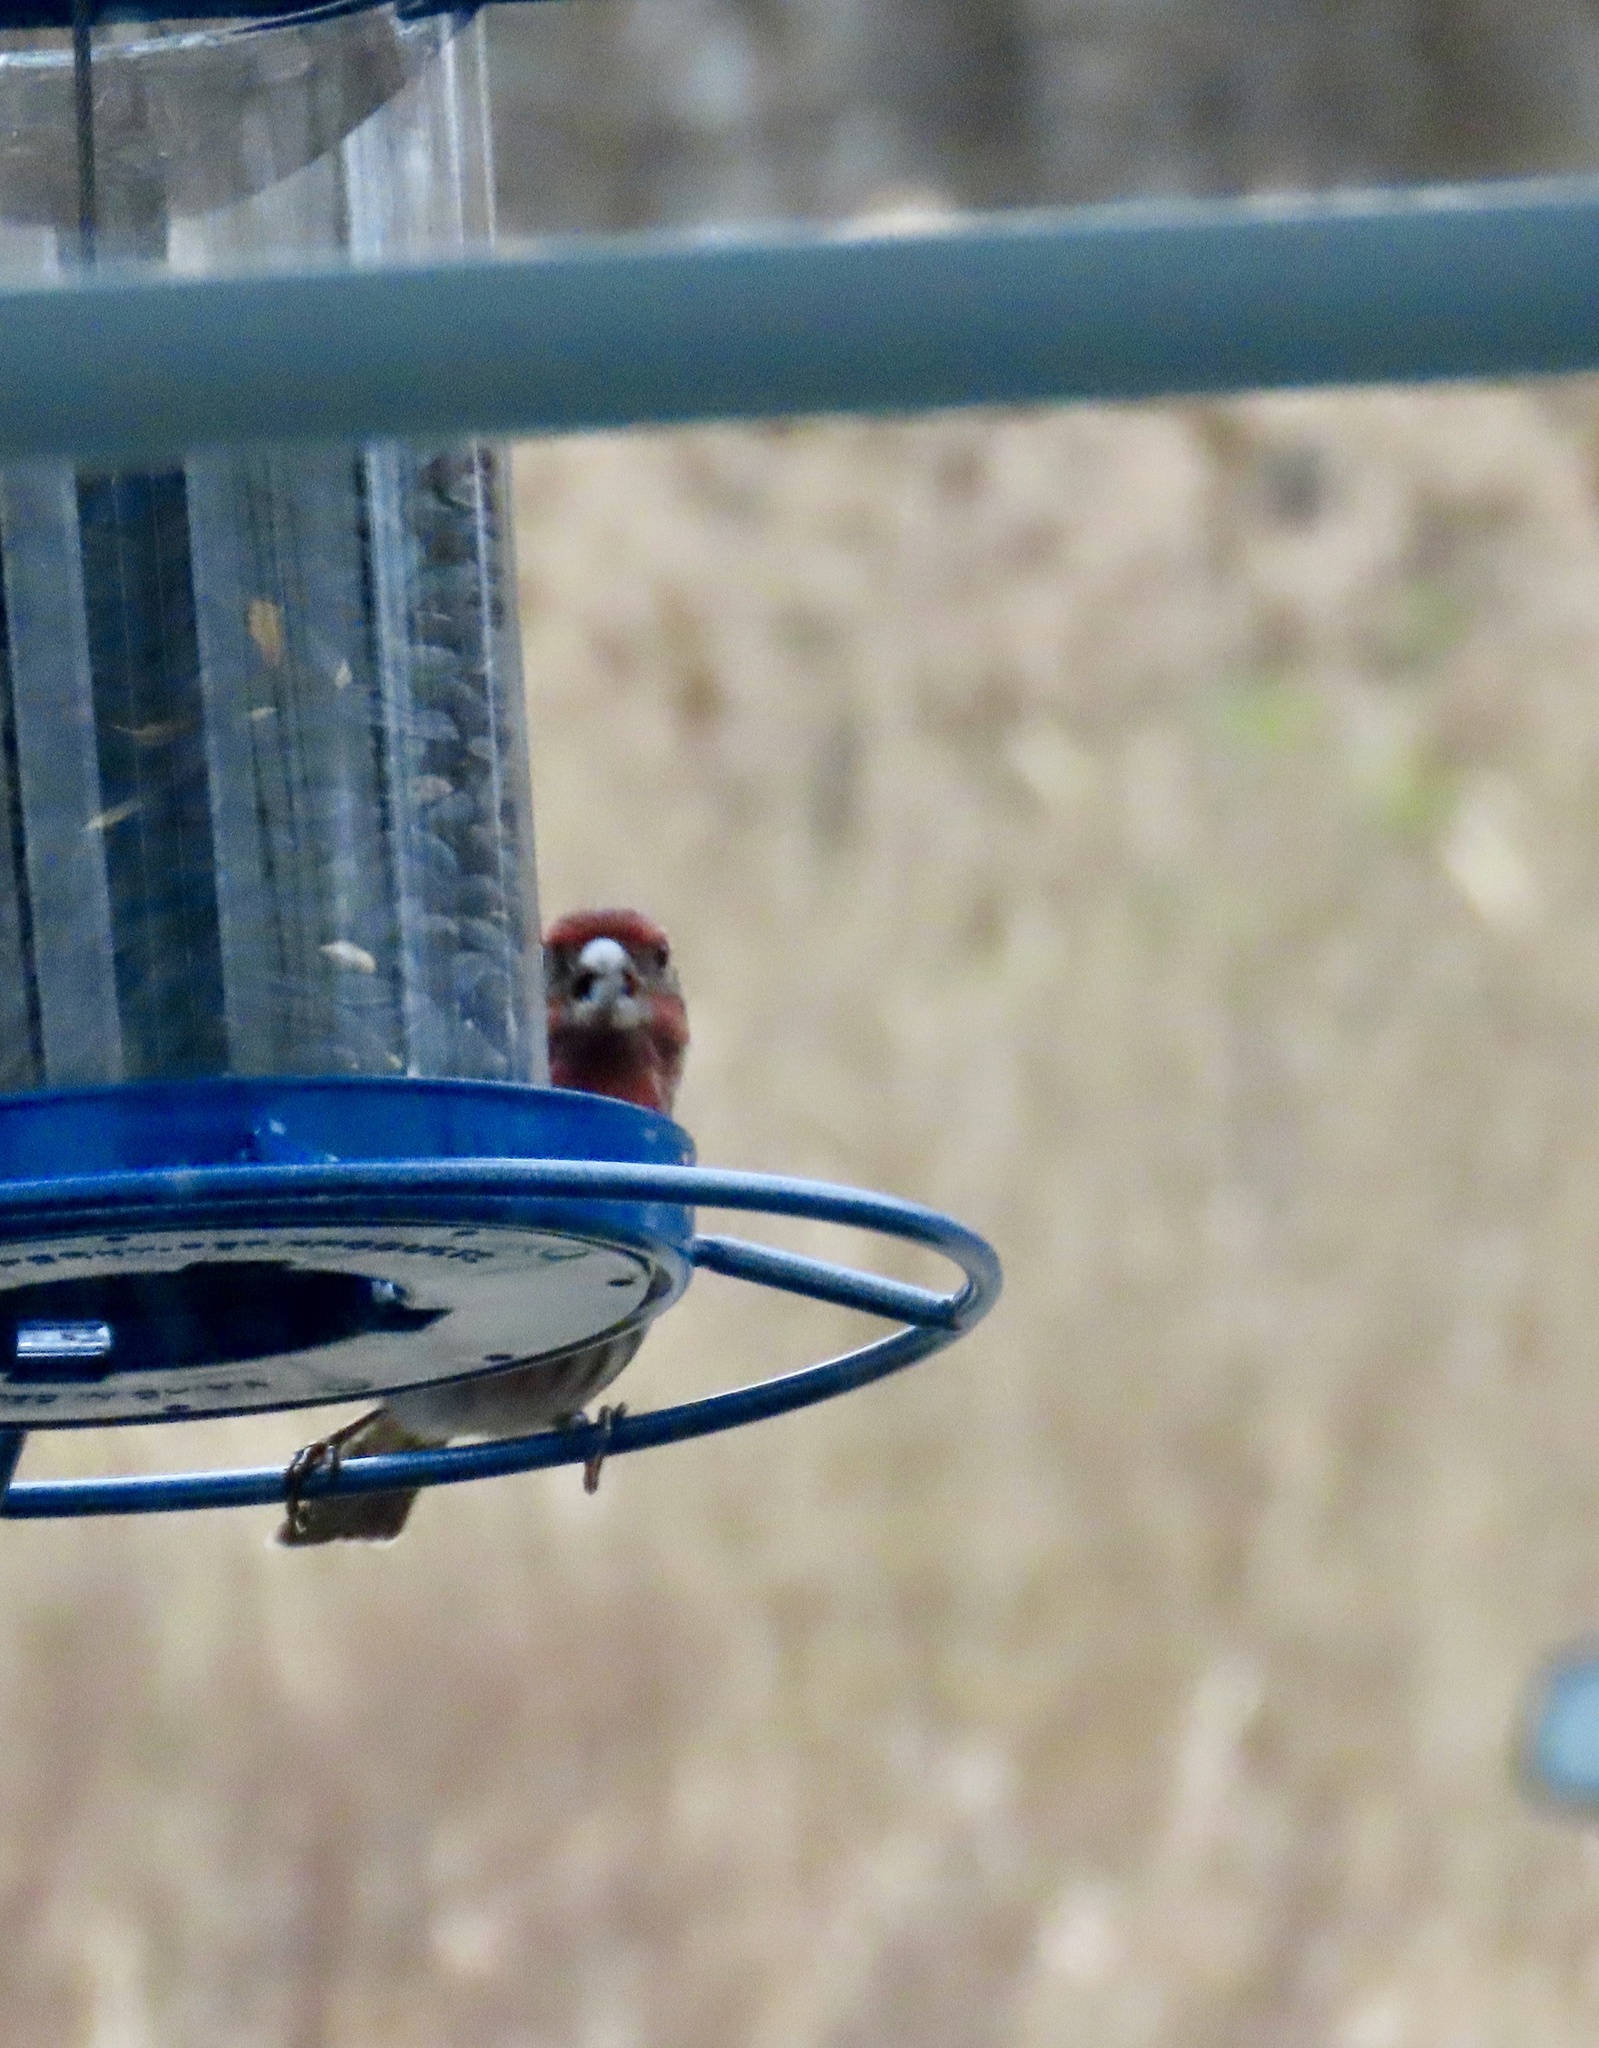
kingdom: Animalia
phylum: Chordata
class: Aves
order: Passeriformes
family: Fringillidae
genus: Haemorhous
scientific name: Haemorhous mexicanus
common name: House finch
